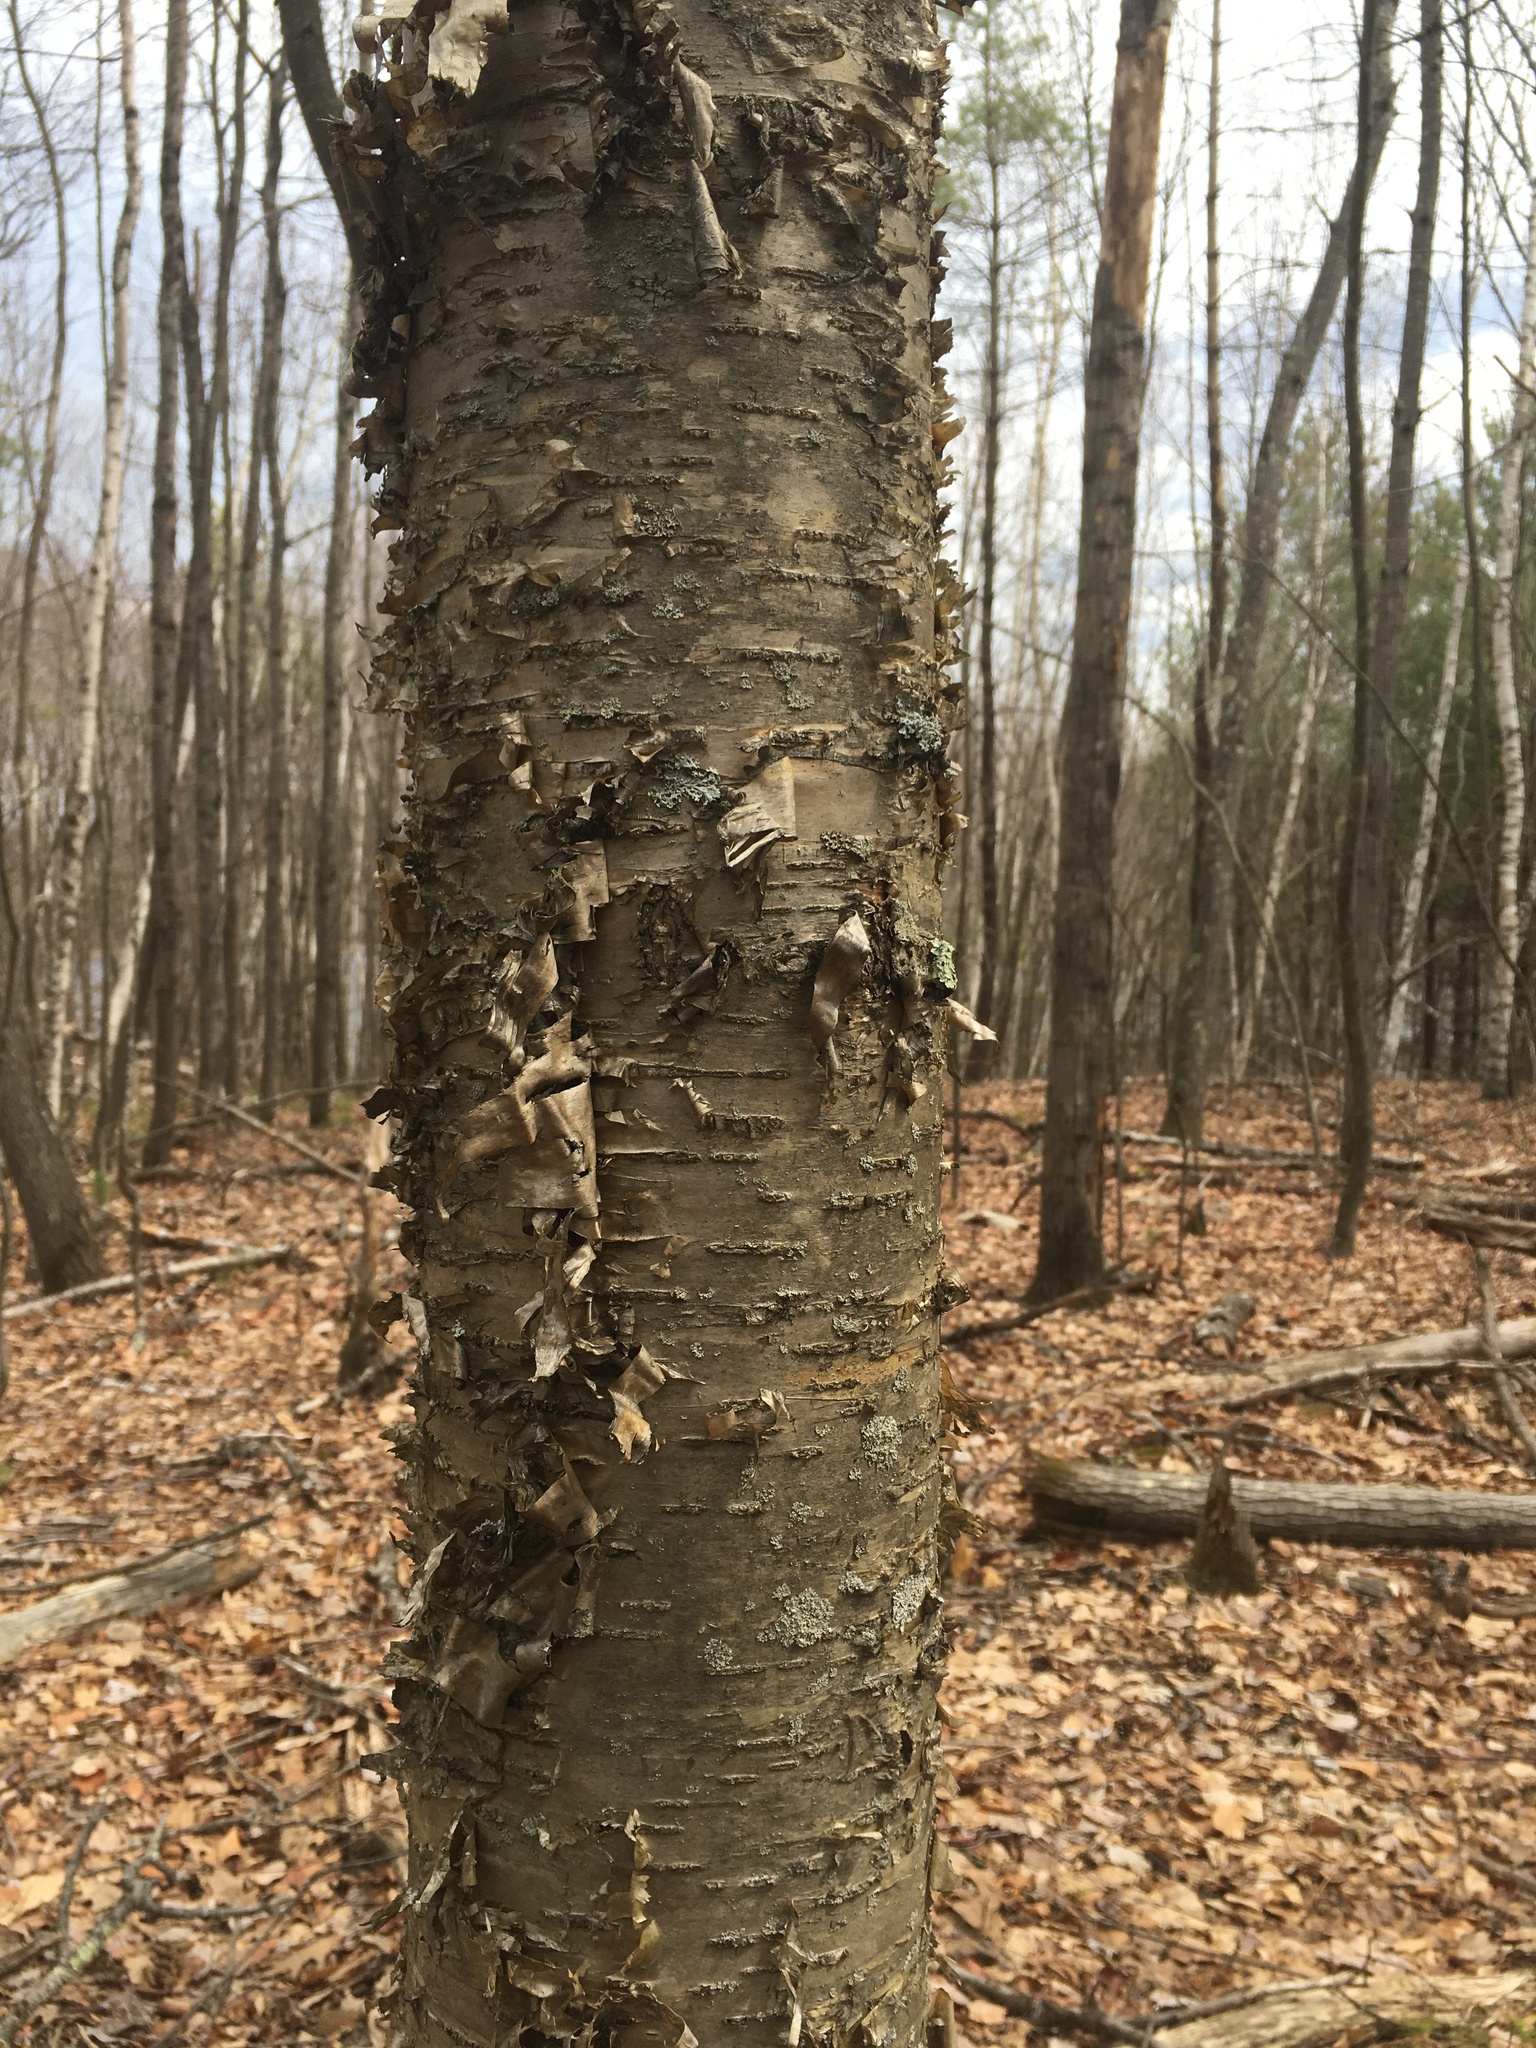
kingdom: Plantae
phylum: Tracheophyta
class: Magnoliopsida
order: Fagales
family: Betulaceae
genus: Betula
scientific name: Betula alleghaniensis
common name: Yellow birch
